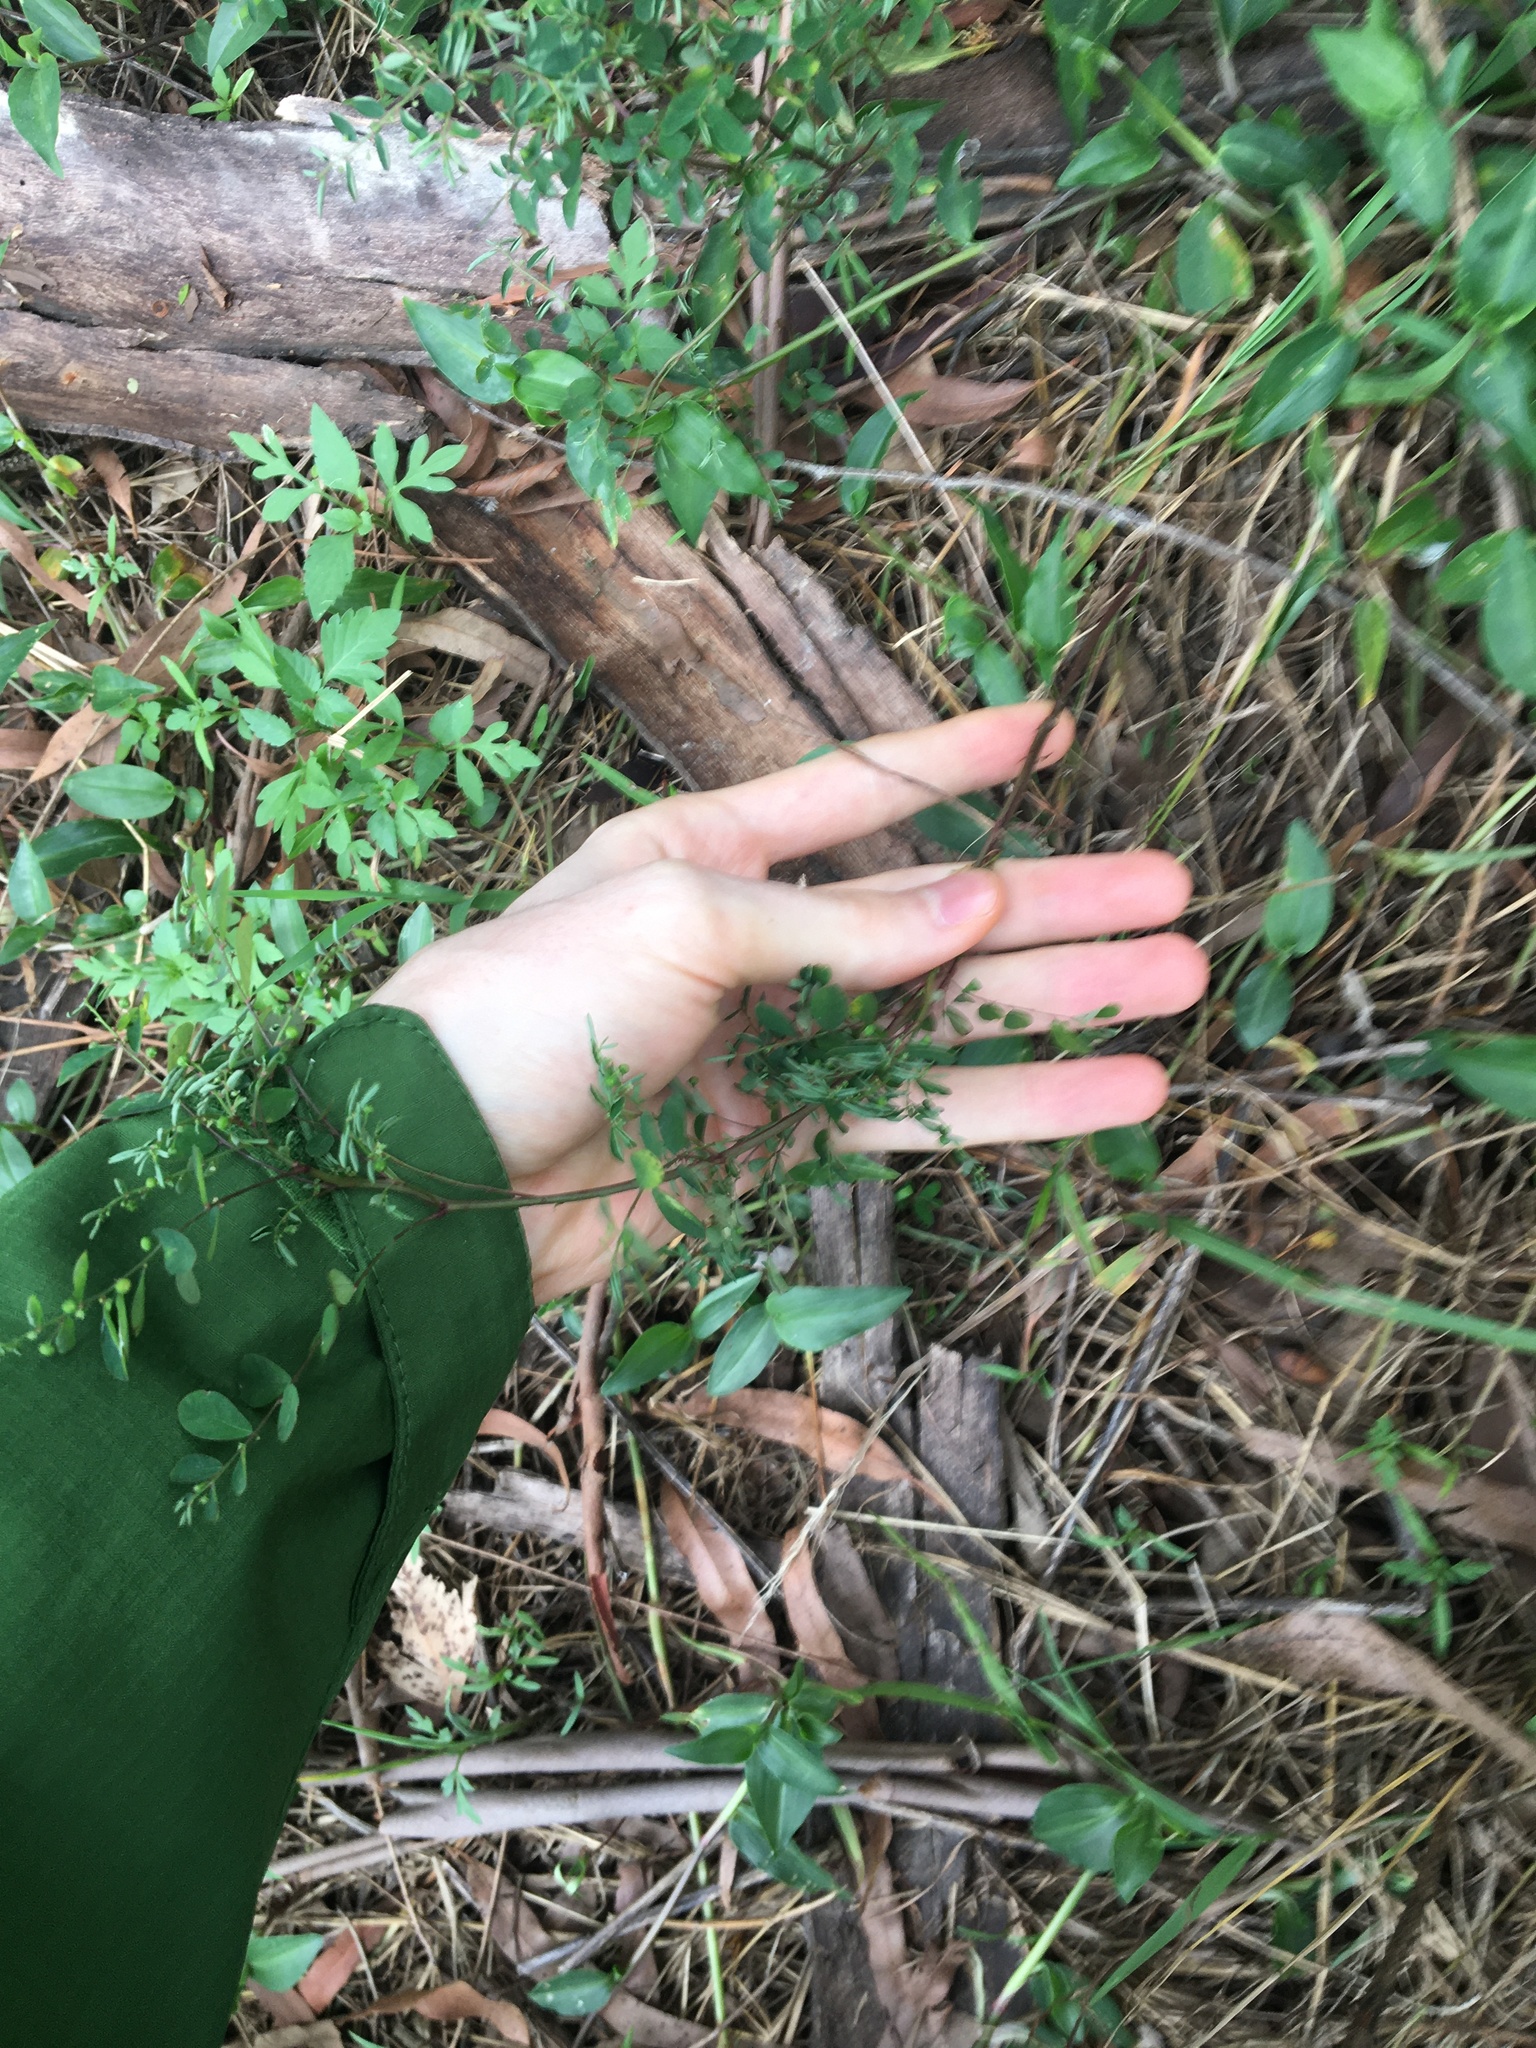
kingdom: Plantae
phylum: Tracheophyta
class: Magnoliopsida
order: Malpighiales
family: Phyllanthaceae
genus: Phyllanthus
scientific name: Phyllanthus tenellus
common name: Mascarene island leaf-flower
